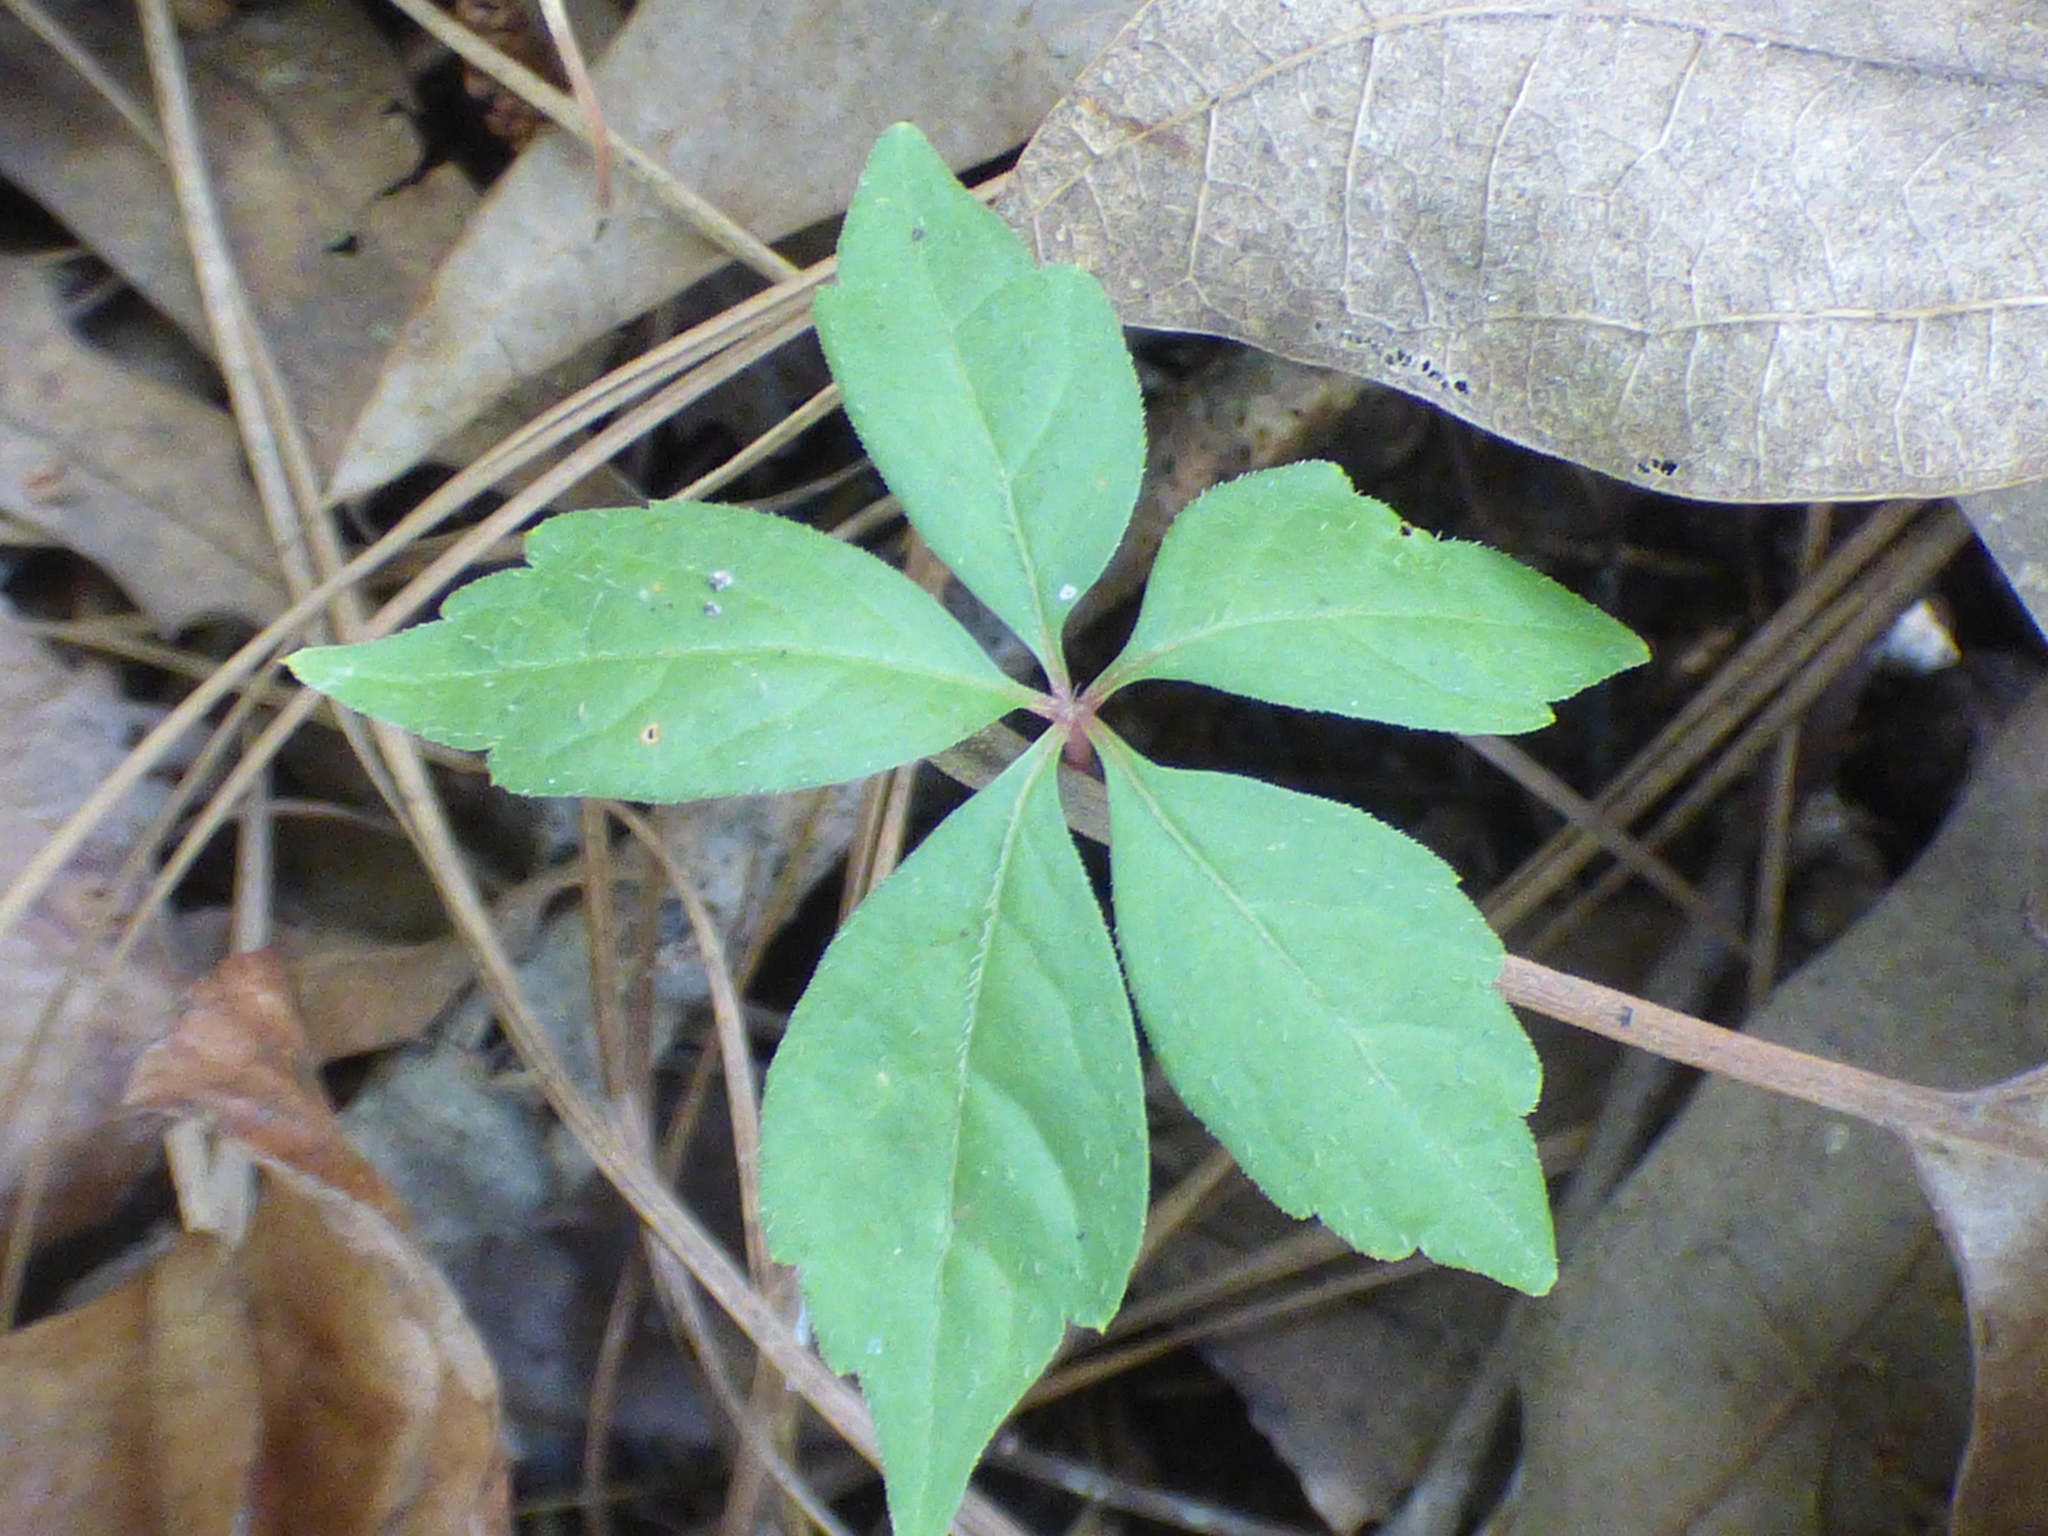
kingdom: Plantae
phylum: Tracheophyta
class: Magnoliopsida
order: Vitales
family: Vitaceae
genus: Parthenocissus
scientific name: Parthenocissus quinquefolia
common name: Virginia-creeper
